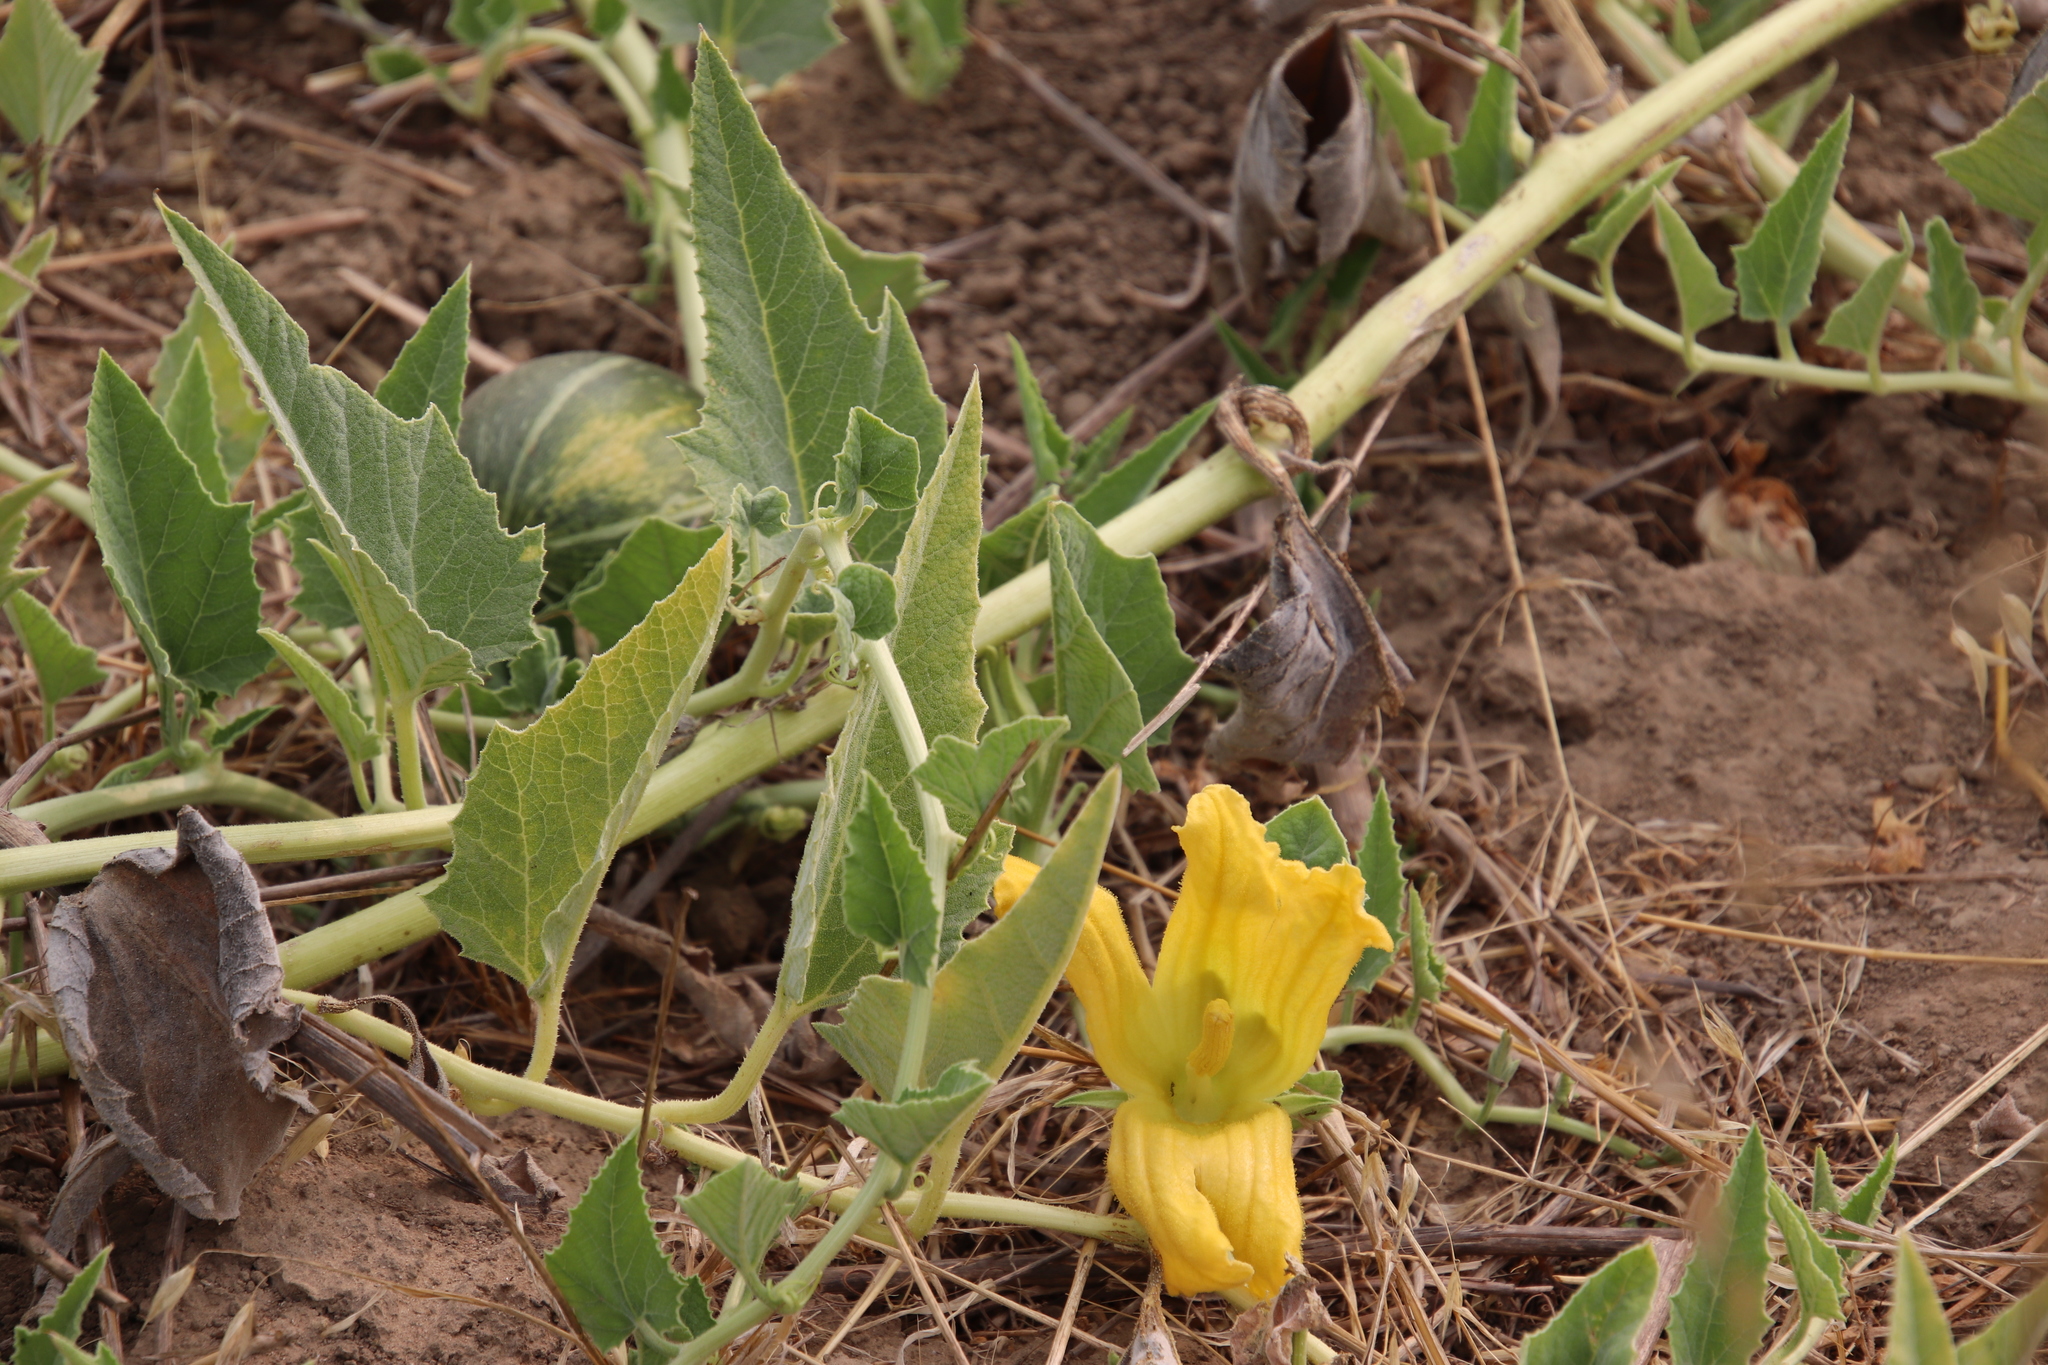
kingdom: Plantae
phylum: Tracheophyta
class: Magnoliopsida
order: Cucurbitales
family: Cucurbitaceae
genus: Cucurbita
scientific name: Cucurbita foetidissima
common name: Buffalo gourd
